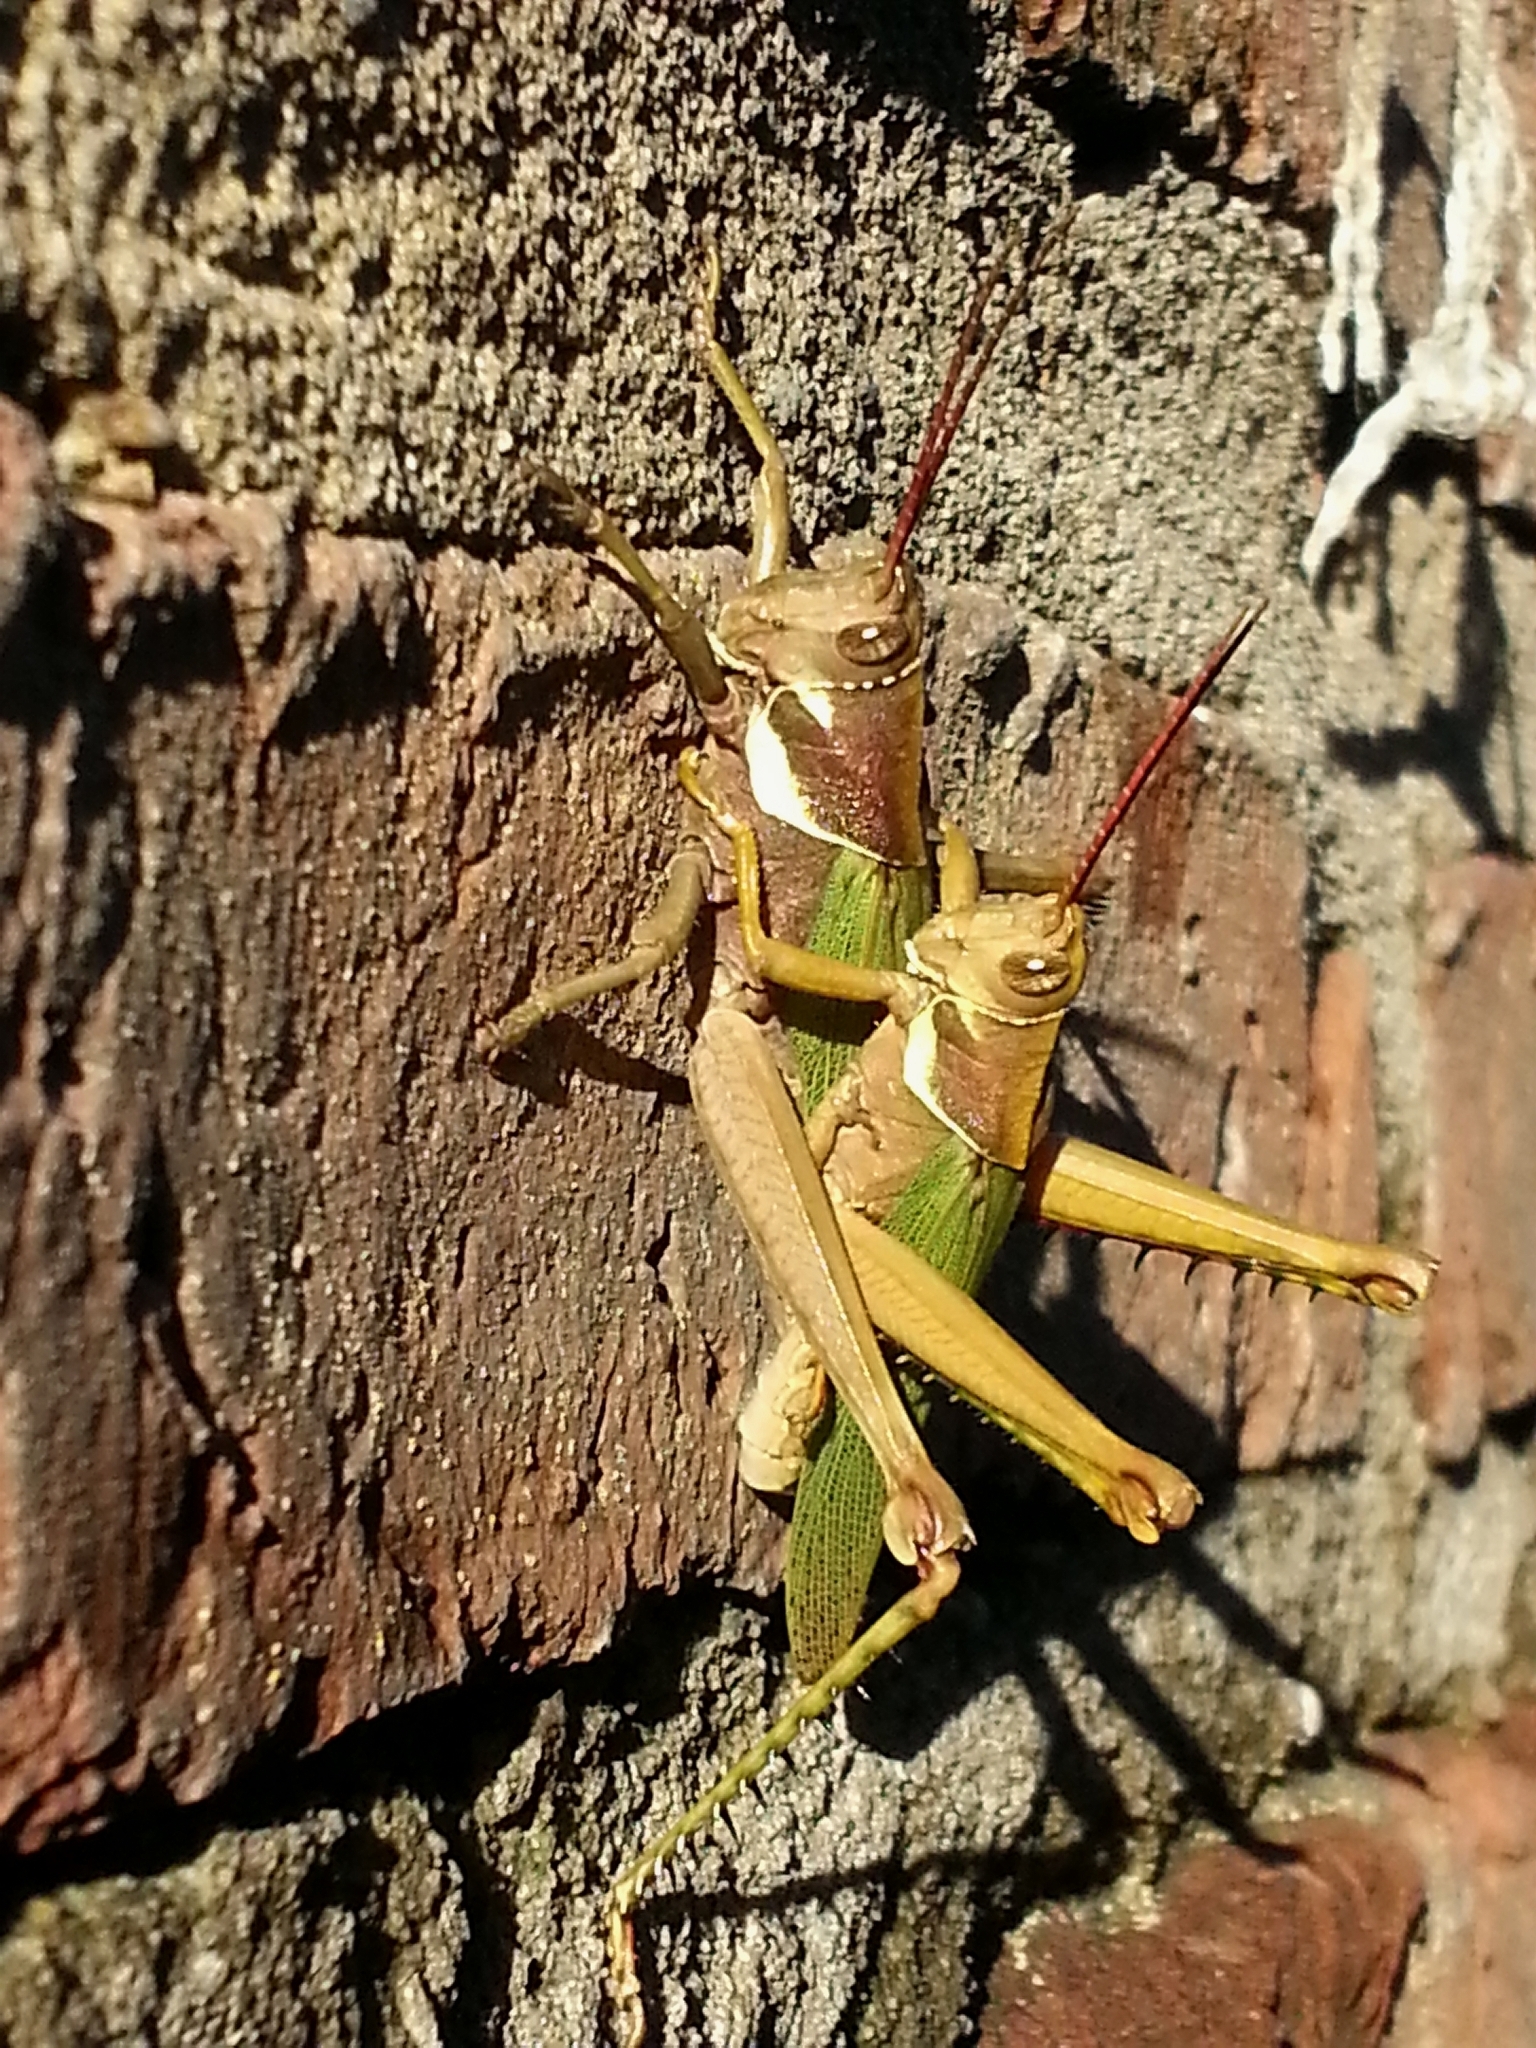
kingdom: Animalia
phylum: Arthropoda
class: Insecta
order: Orthoptera
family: Romaleidae
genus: Coryacris
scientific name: Coryacris angustipennis
